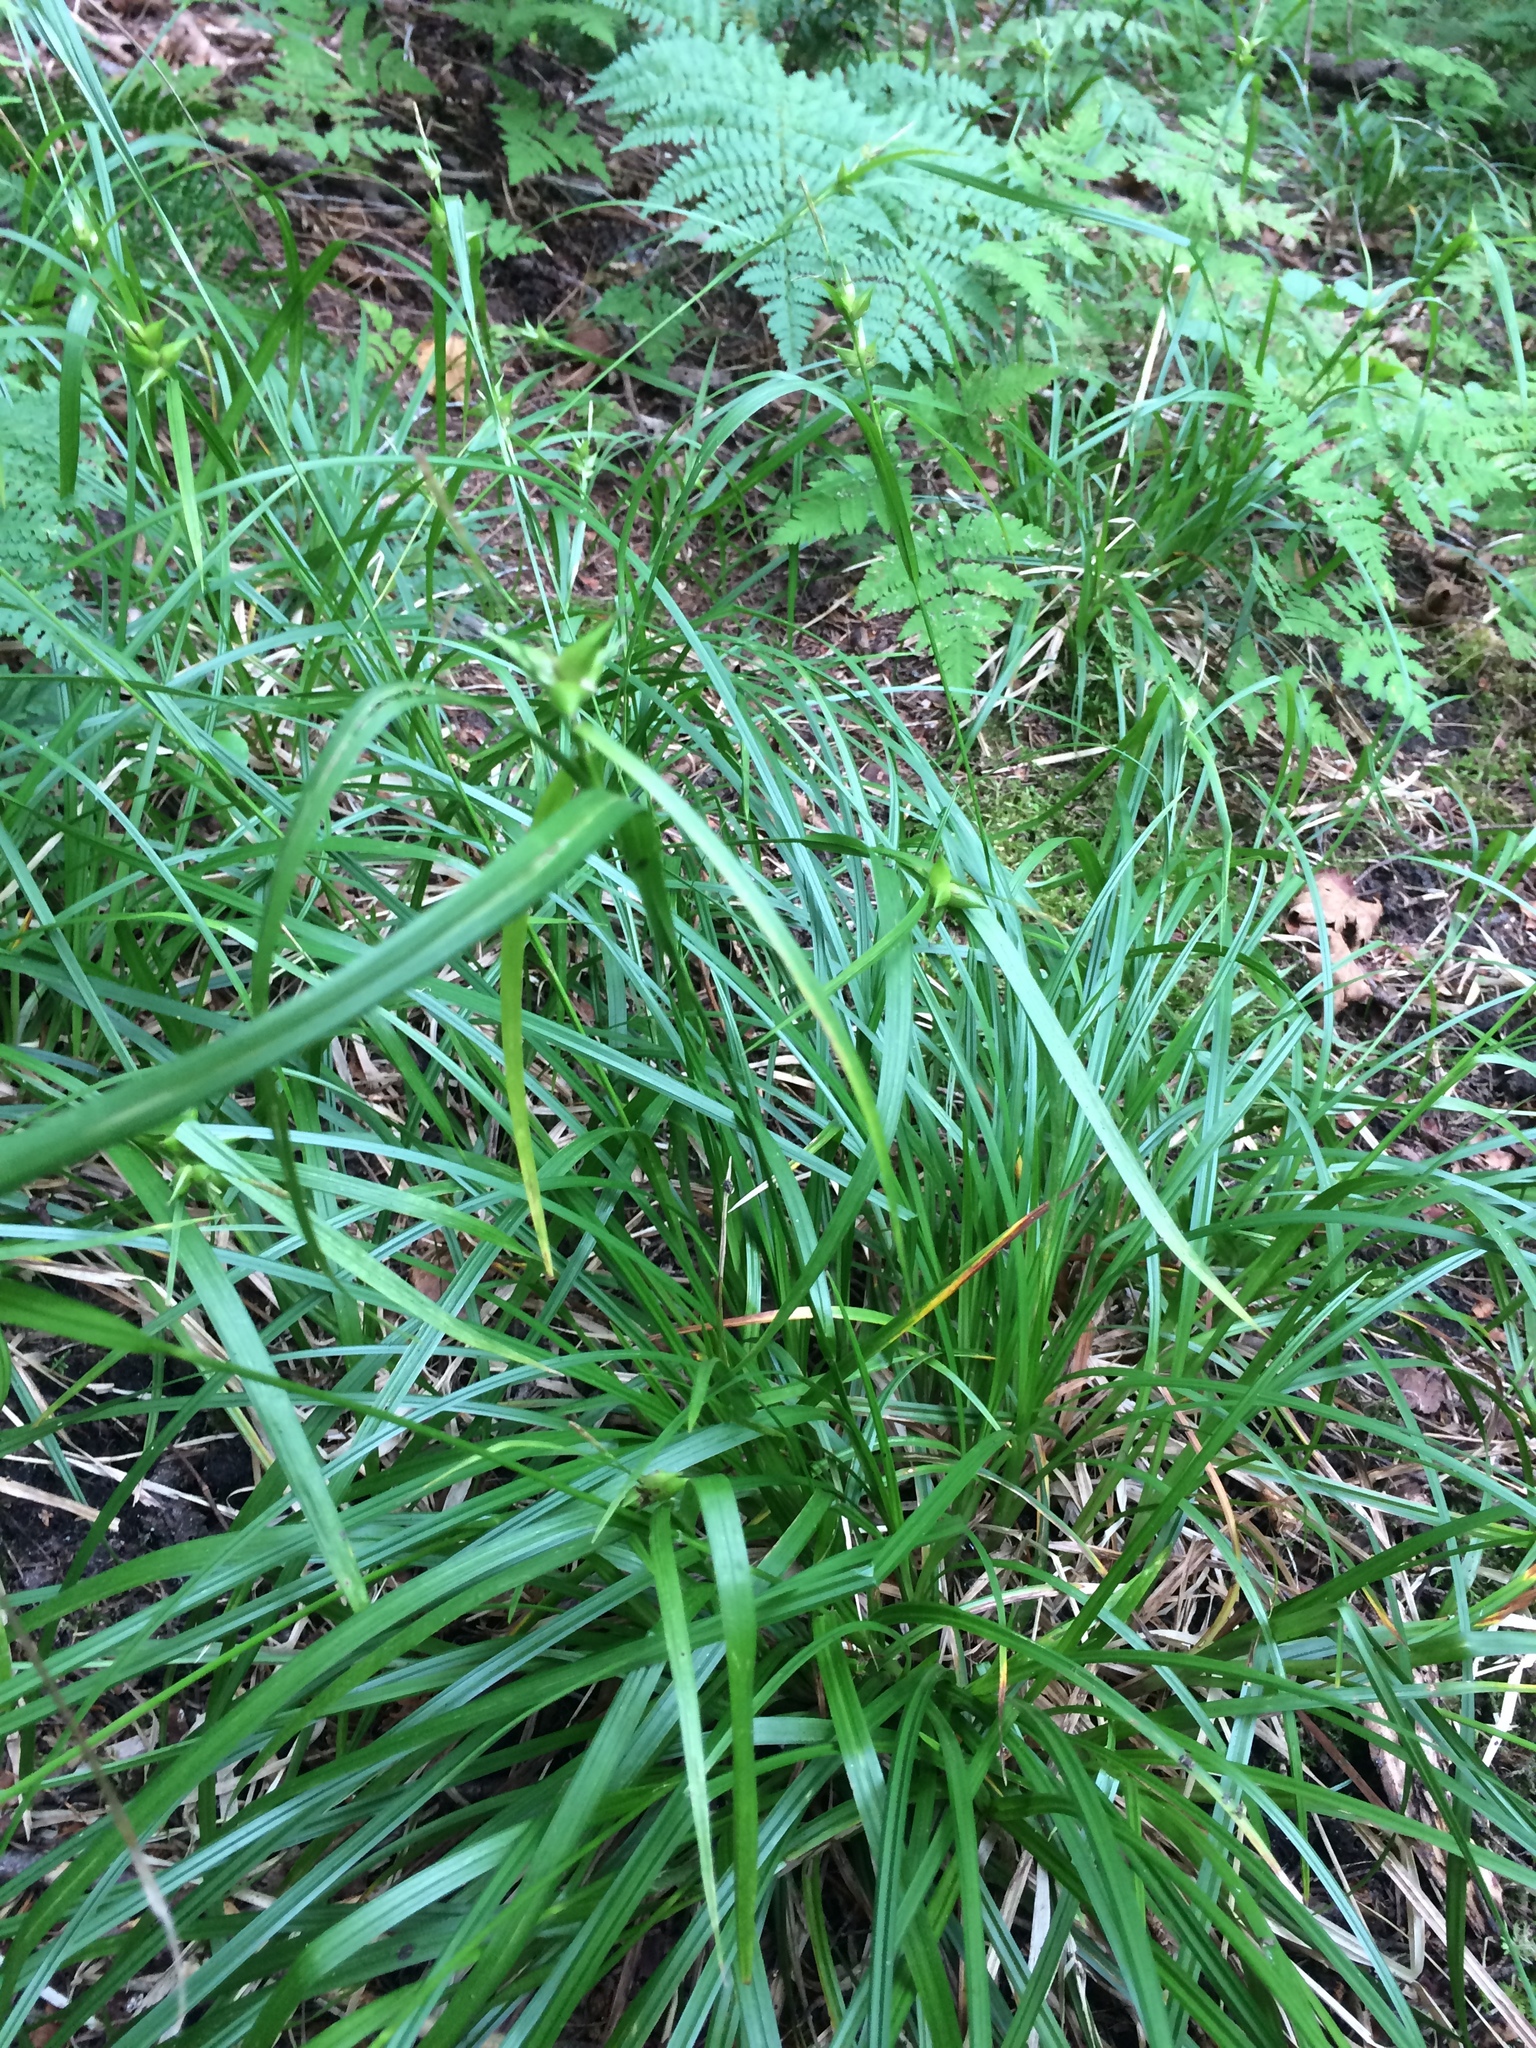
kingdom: Plantae
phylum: Tracheophyta
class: Liliopsida
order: Poales
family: Cyperaceae
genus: Carex
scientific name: Carex intumescens
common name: Greater bladder sedge
